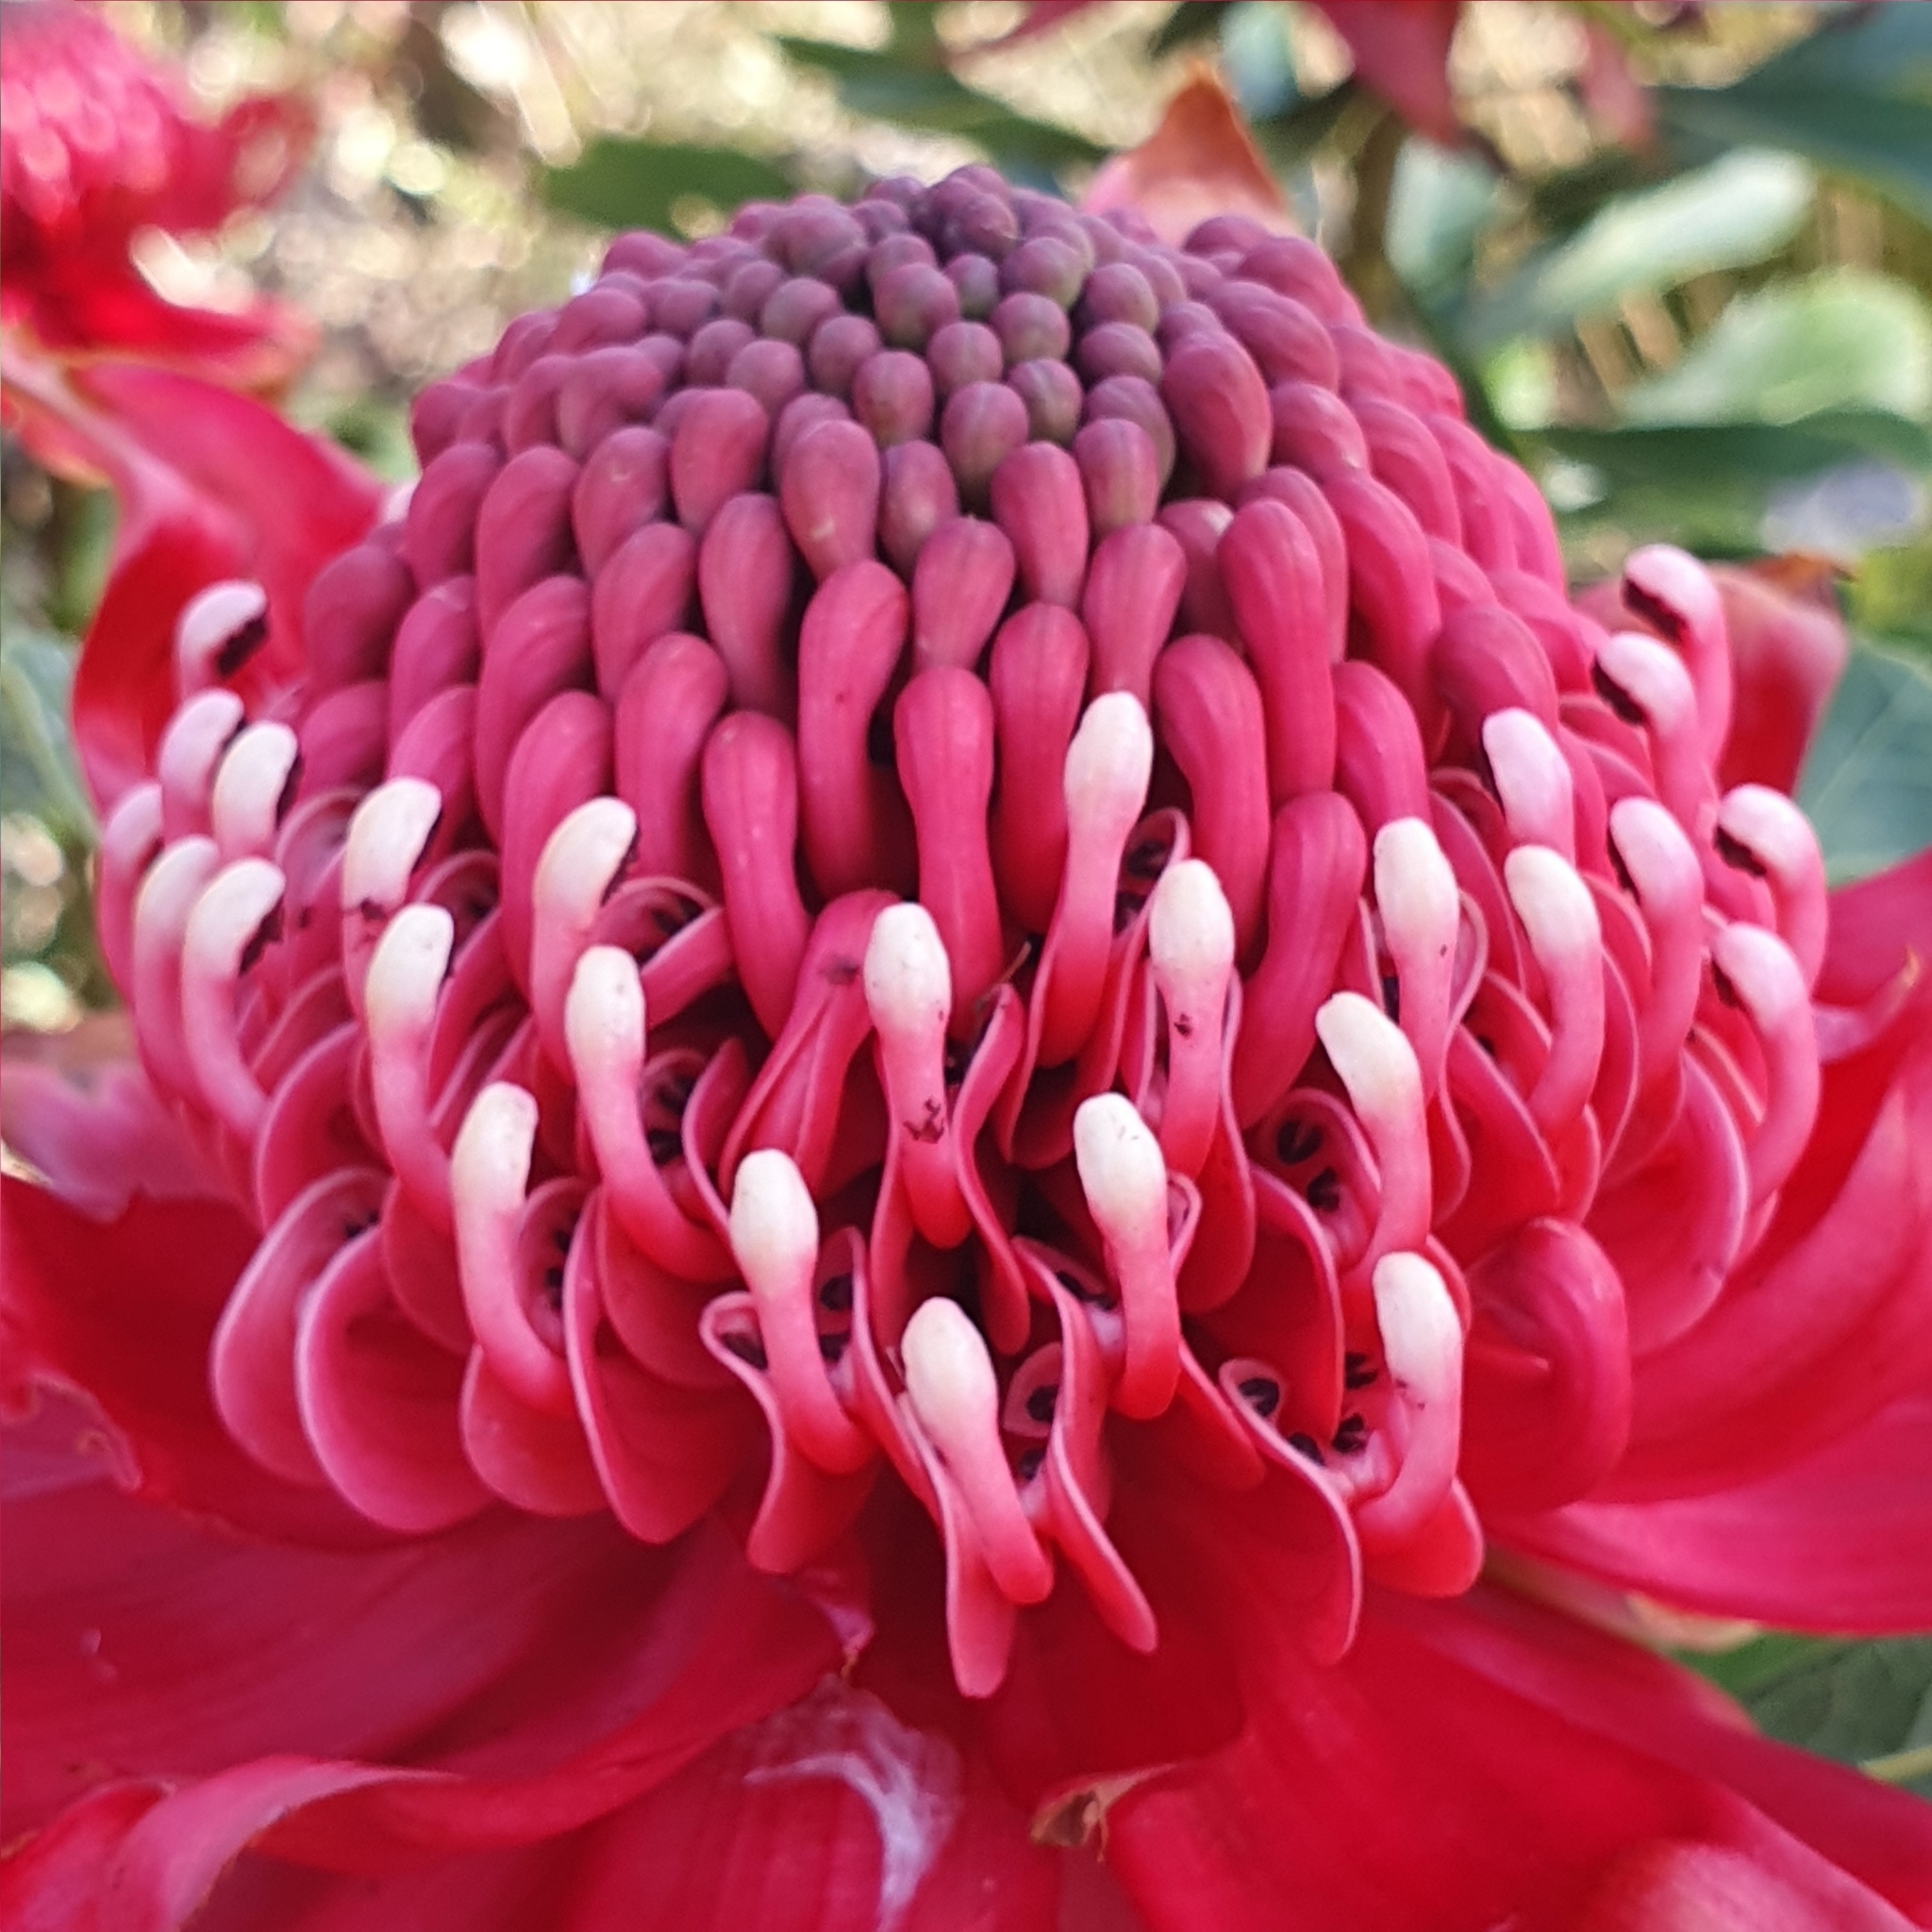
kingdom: Plantae
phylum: Tracheophyta
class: Magnoliopsida
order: Proteales
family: Proteaceae
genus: Telopea
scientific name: Telopea speciosissima
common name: New south wales waratah
